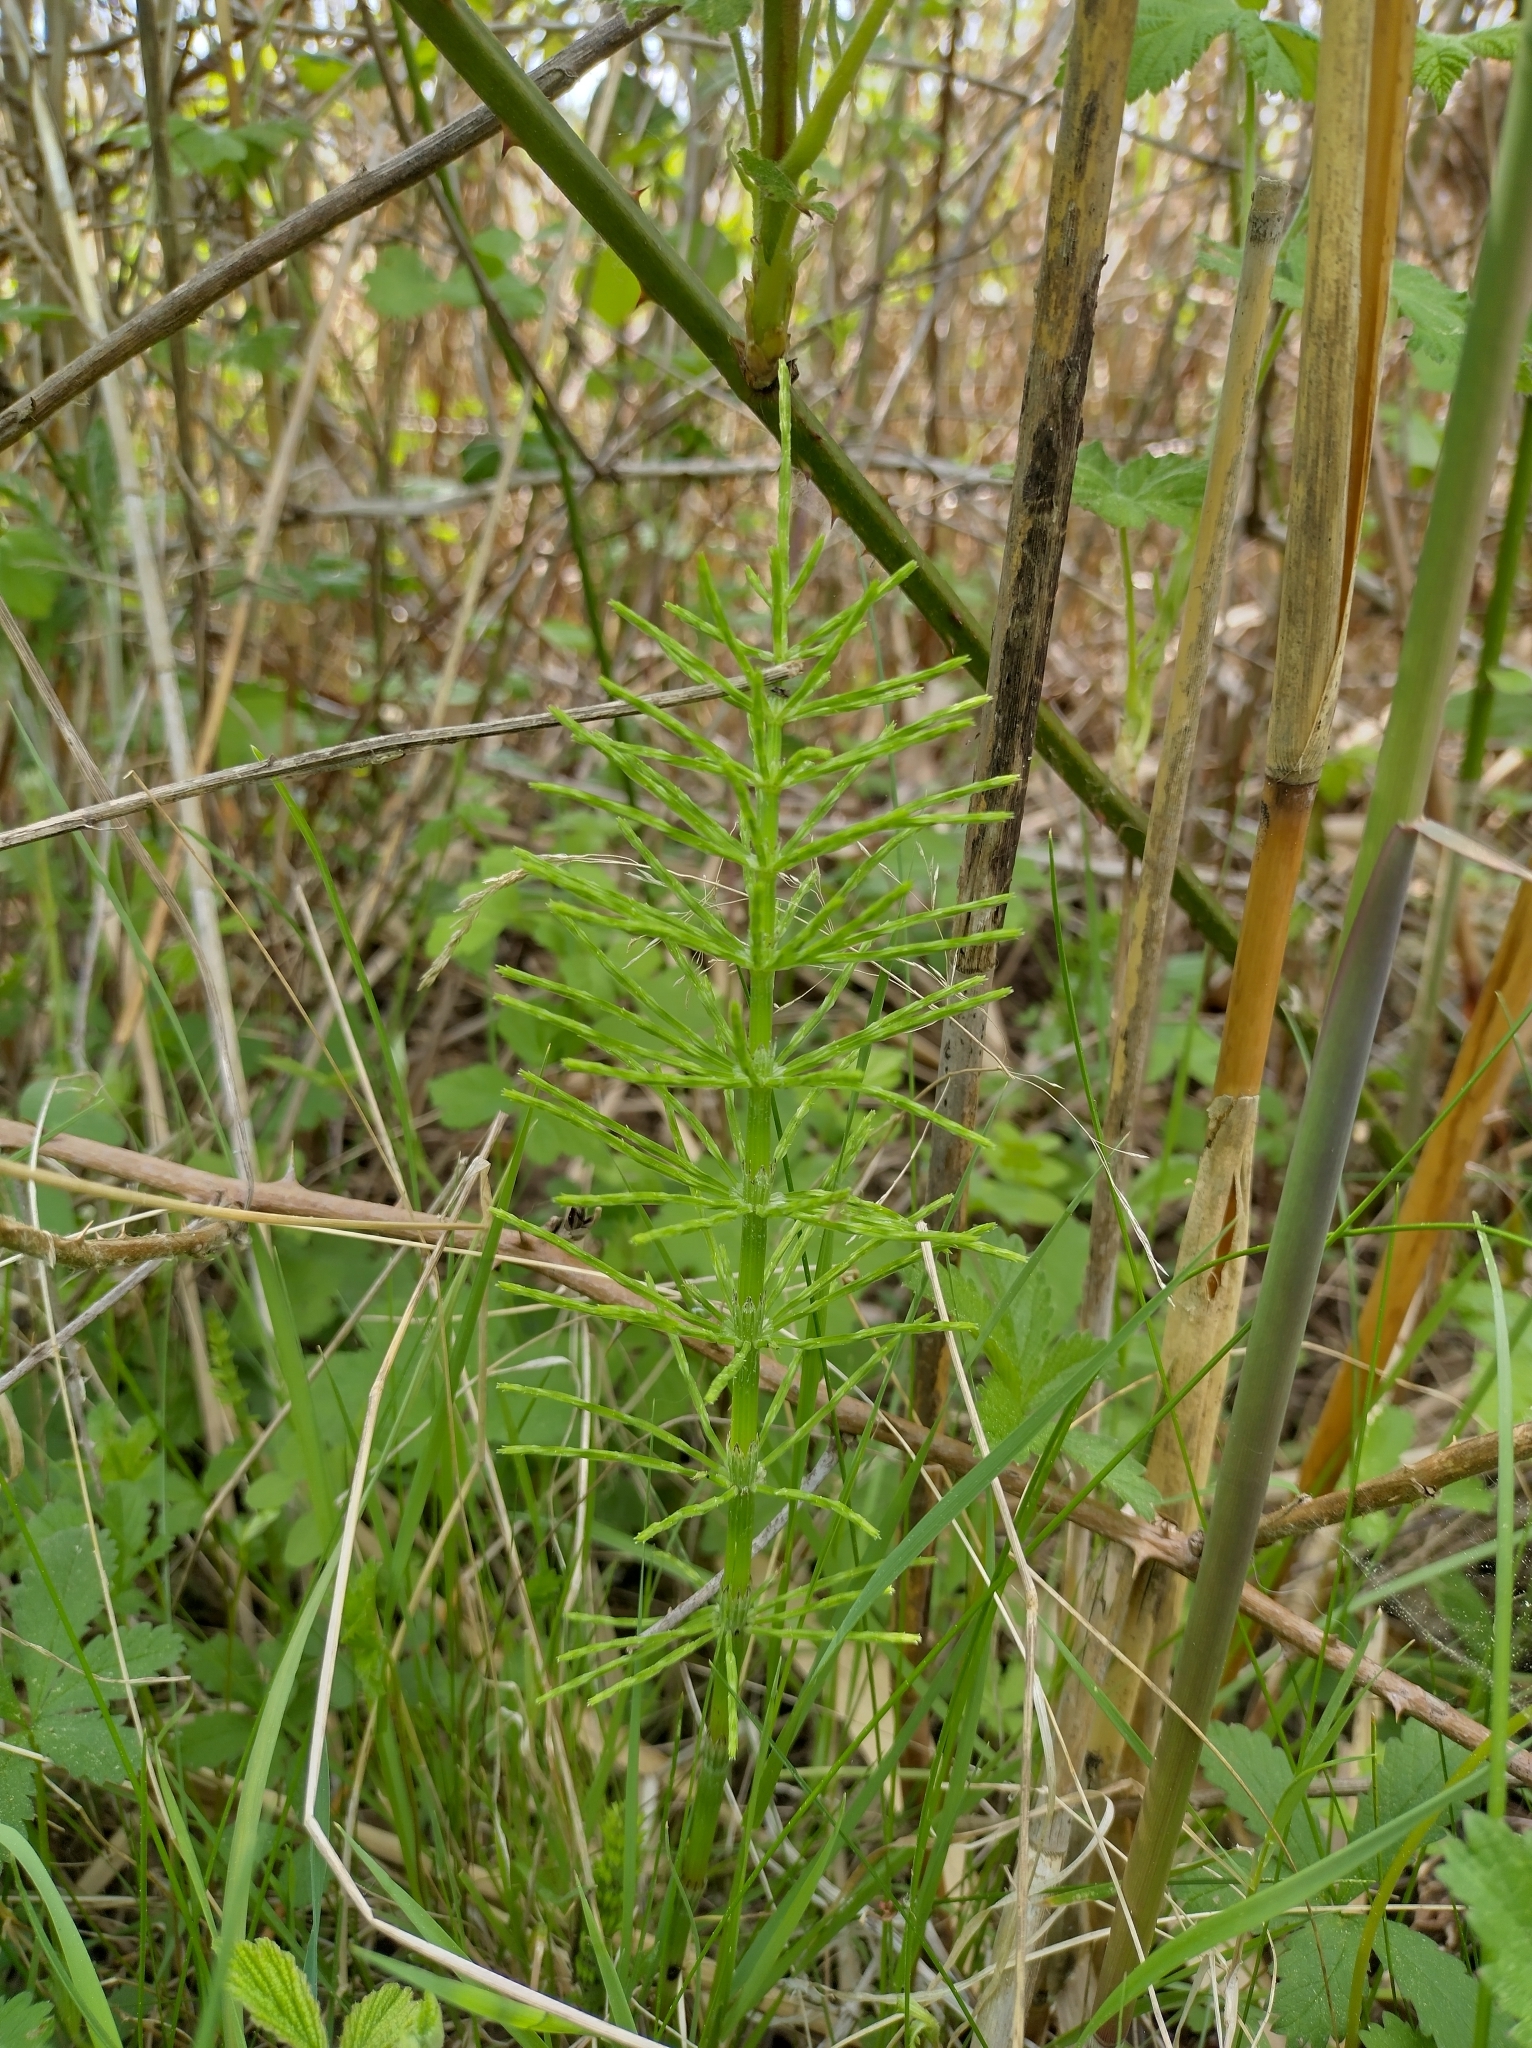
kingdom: Plantae
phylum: Tracheophyta
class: Polypodiopsida
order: Equisetales
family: Equisetaceae
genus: Equisetum
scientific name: Equisetum arvense
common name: Field horsetail
